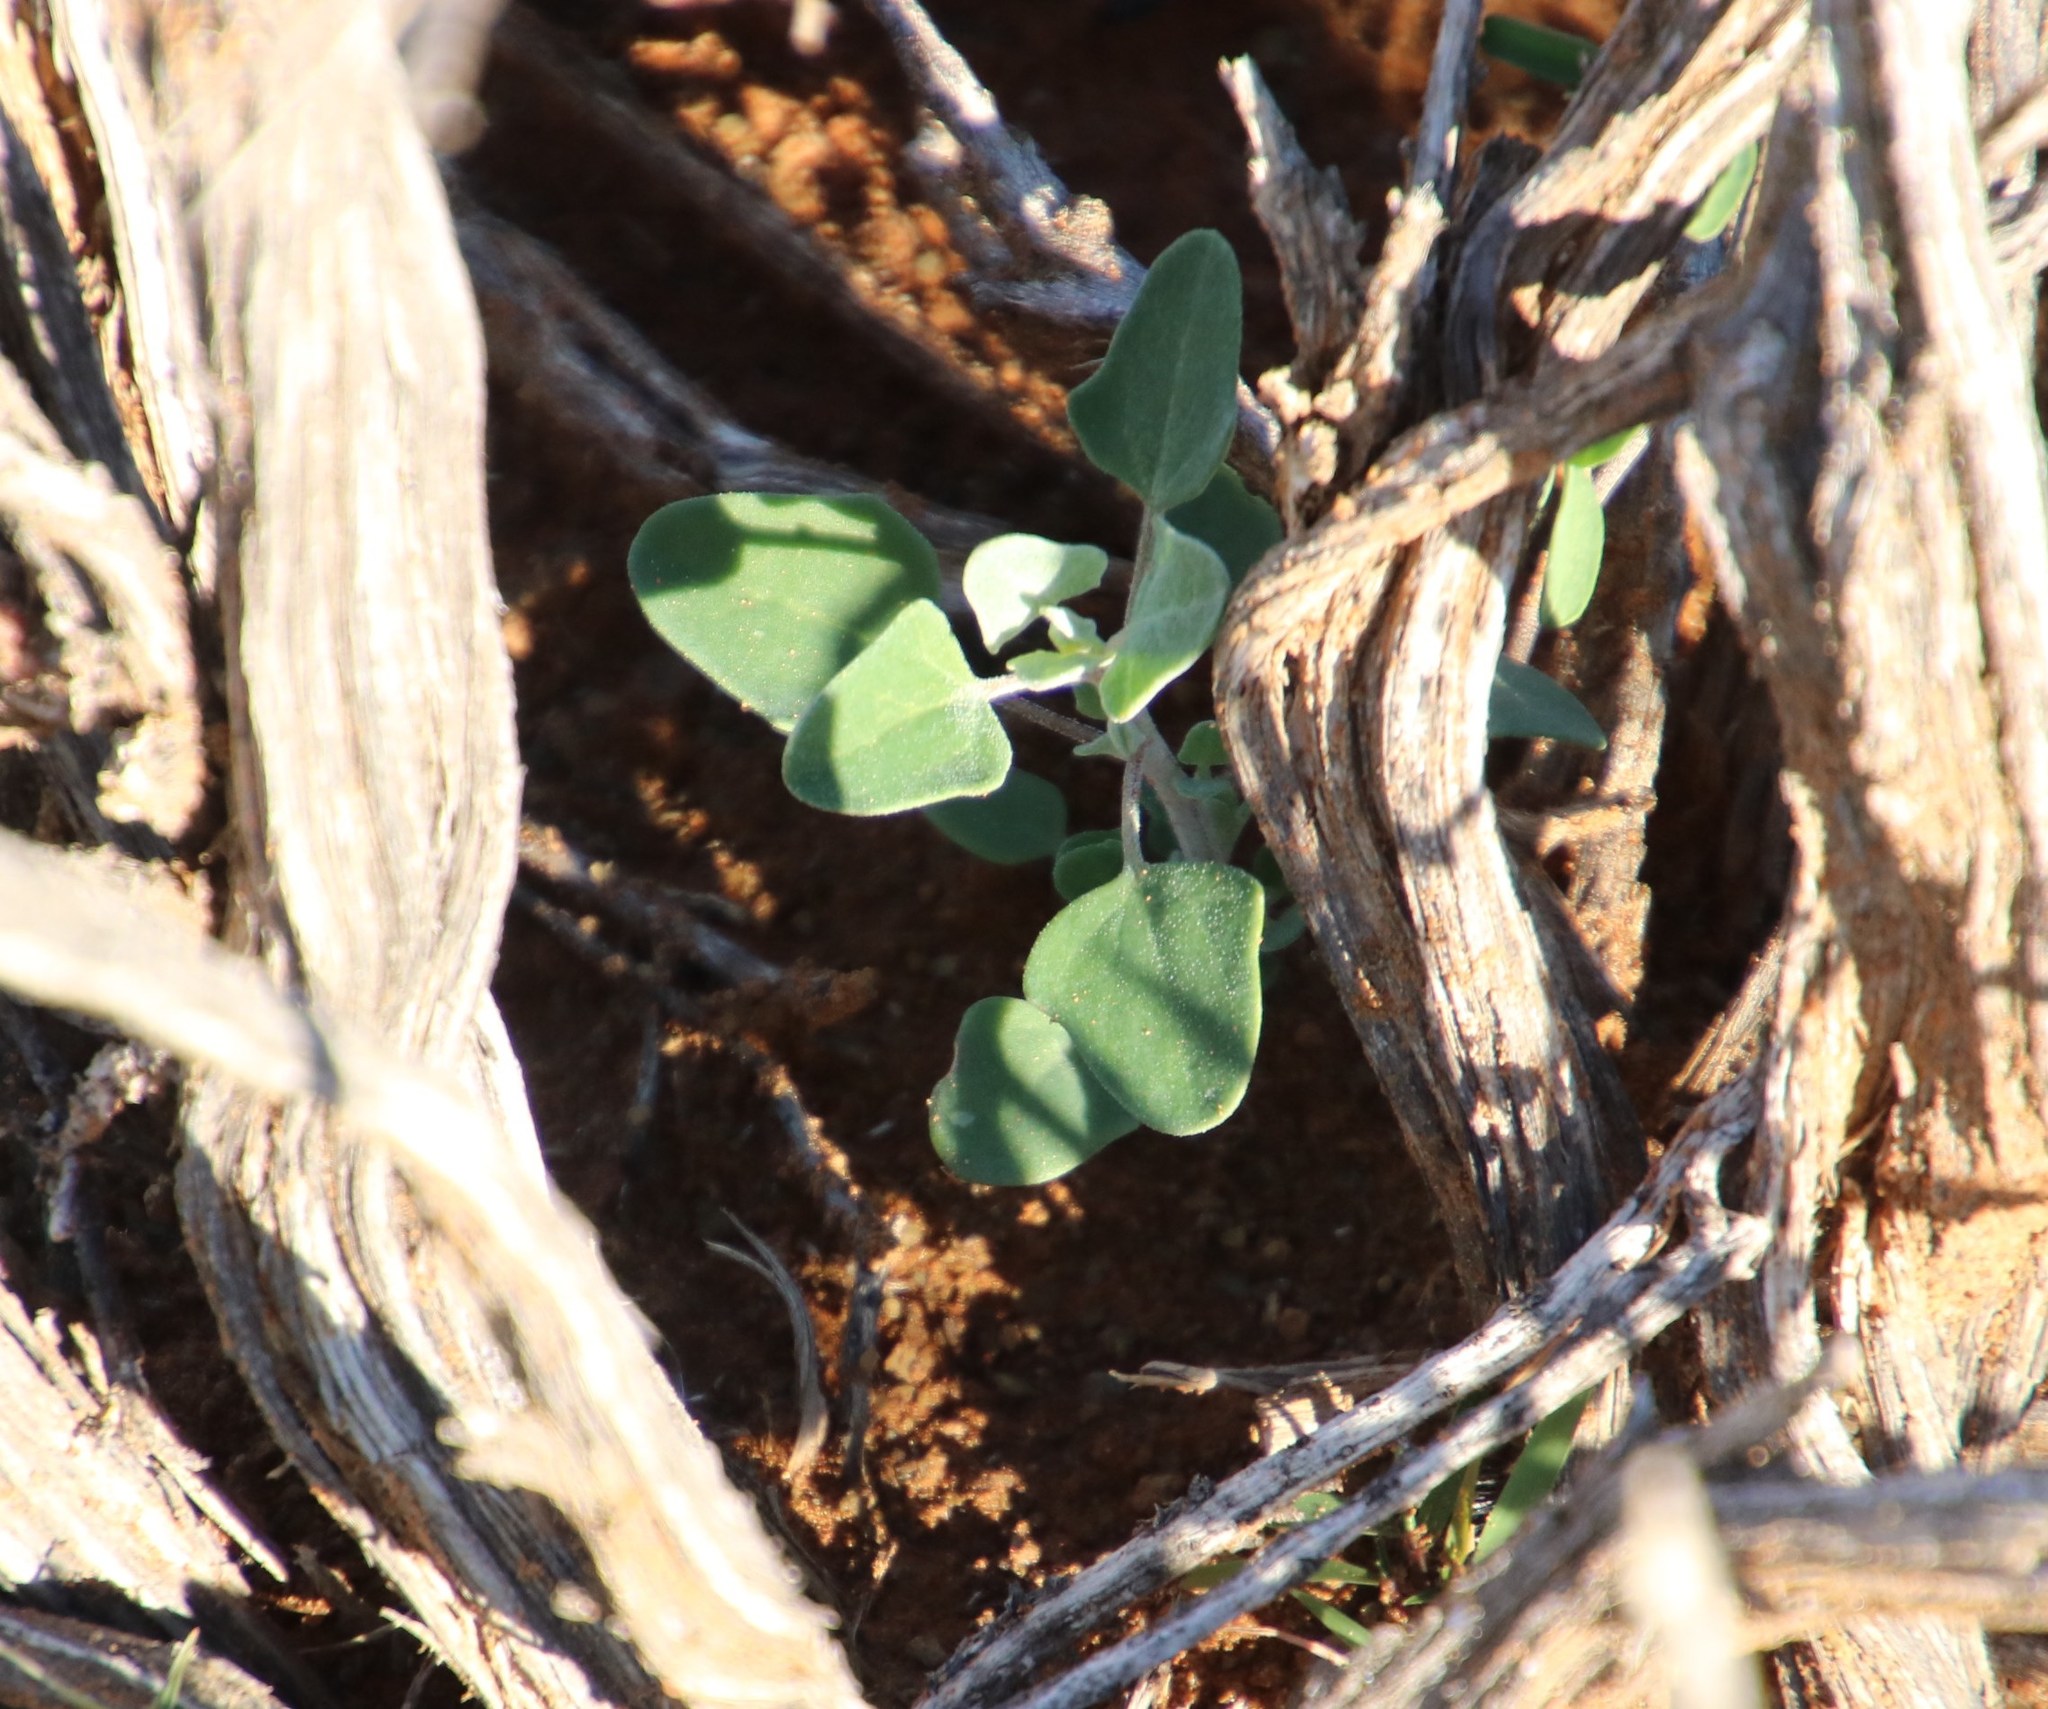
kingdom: Plantae
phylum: Tracheophyta
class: Magnoliopsida
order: Caryophyllales
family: Amaranthaceae
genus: Chenopodium
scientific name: Chenopodium phillipsianum
